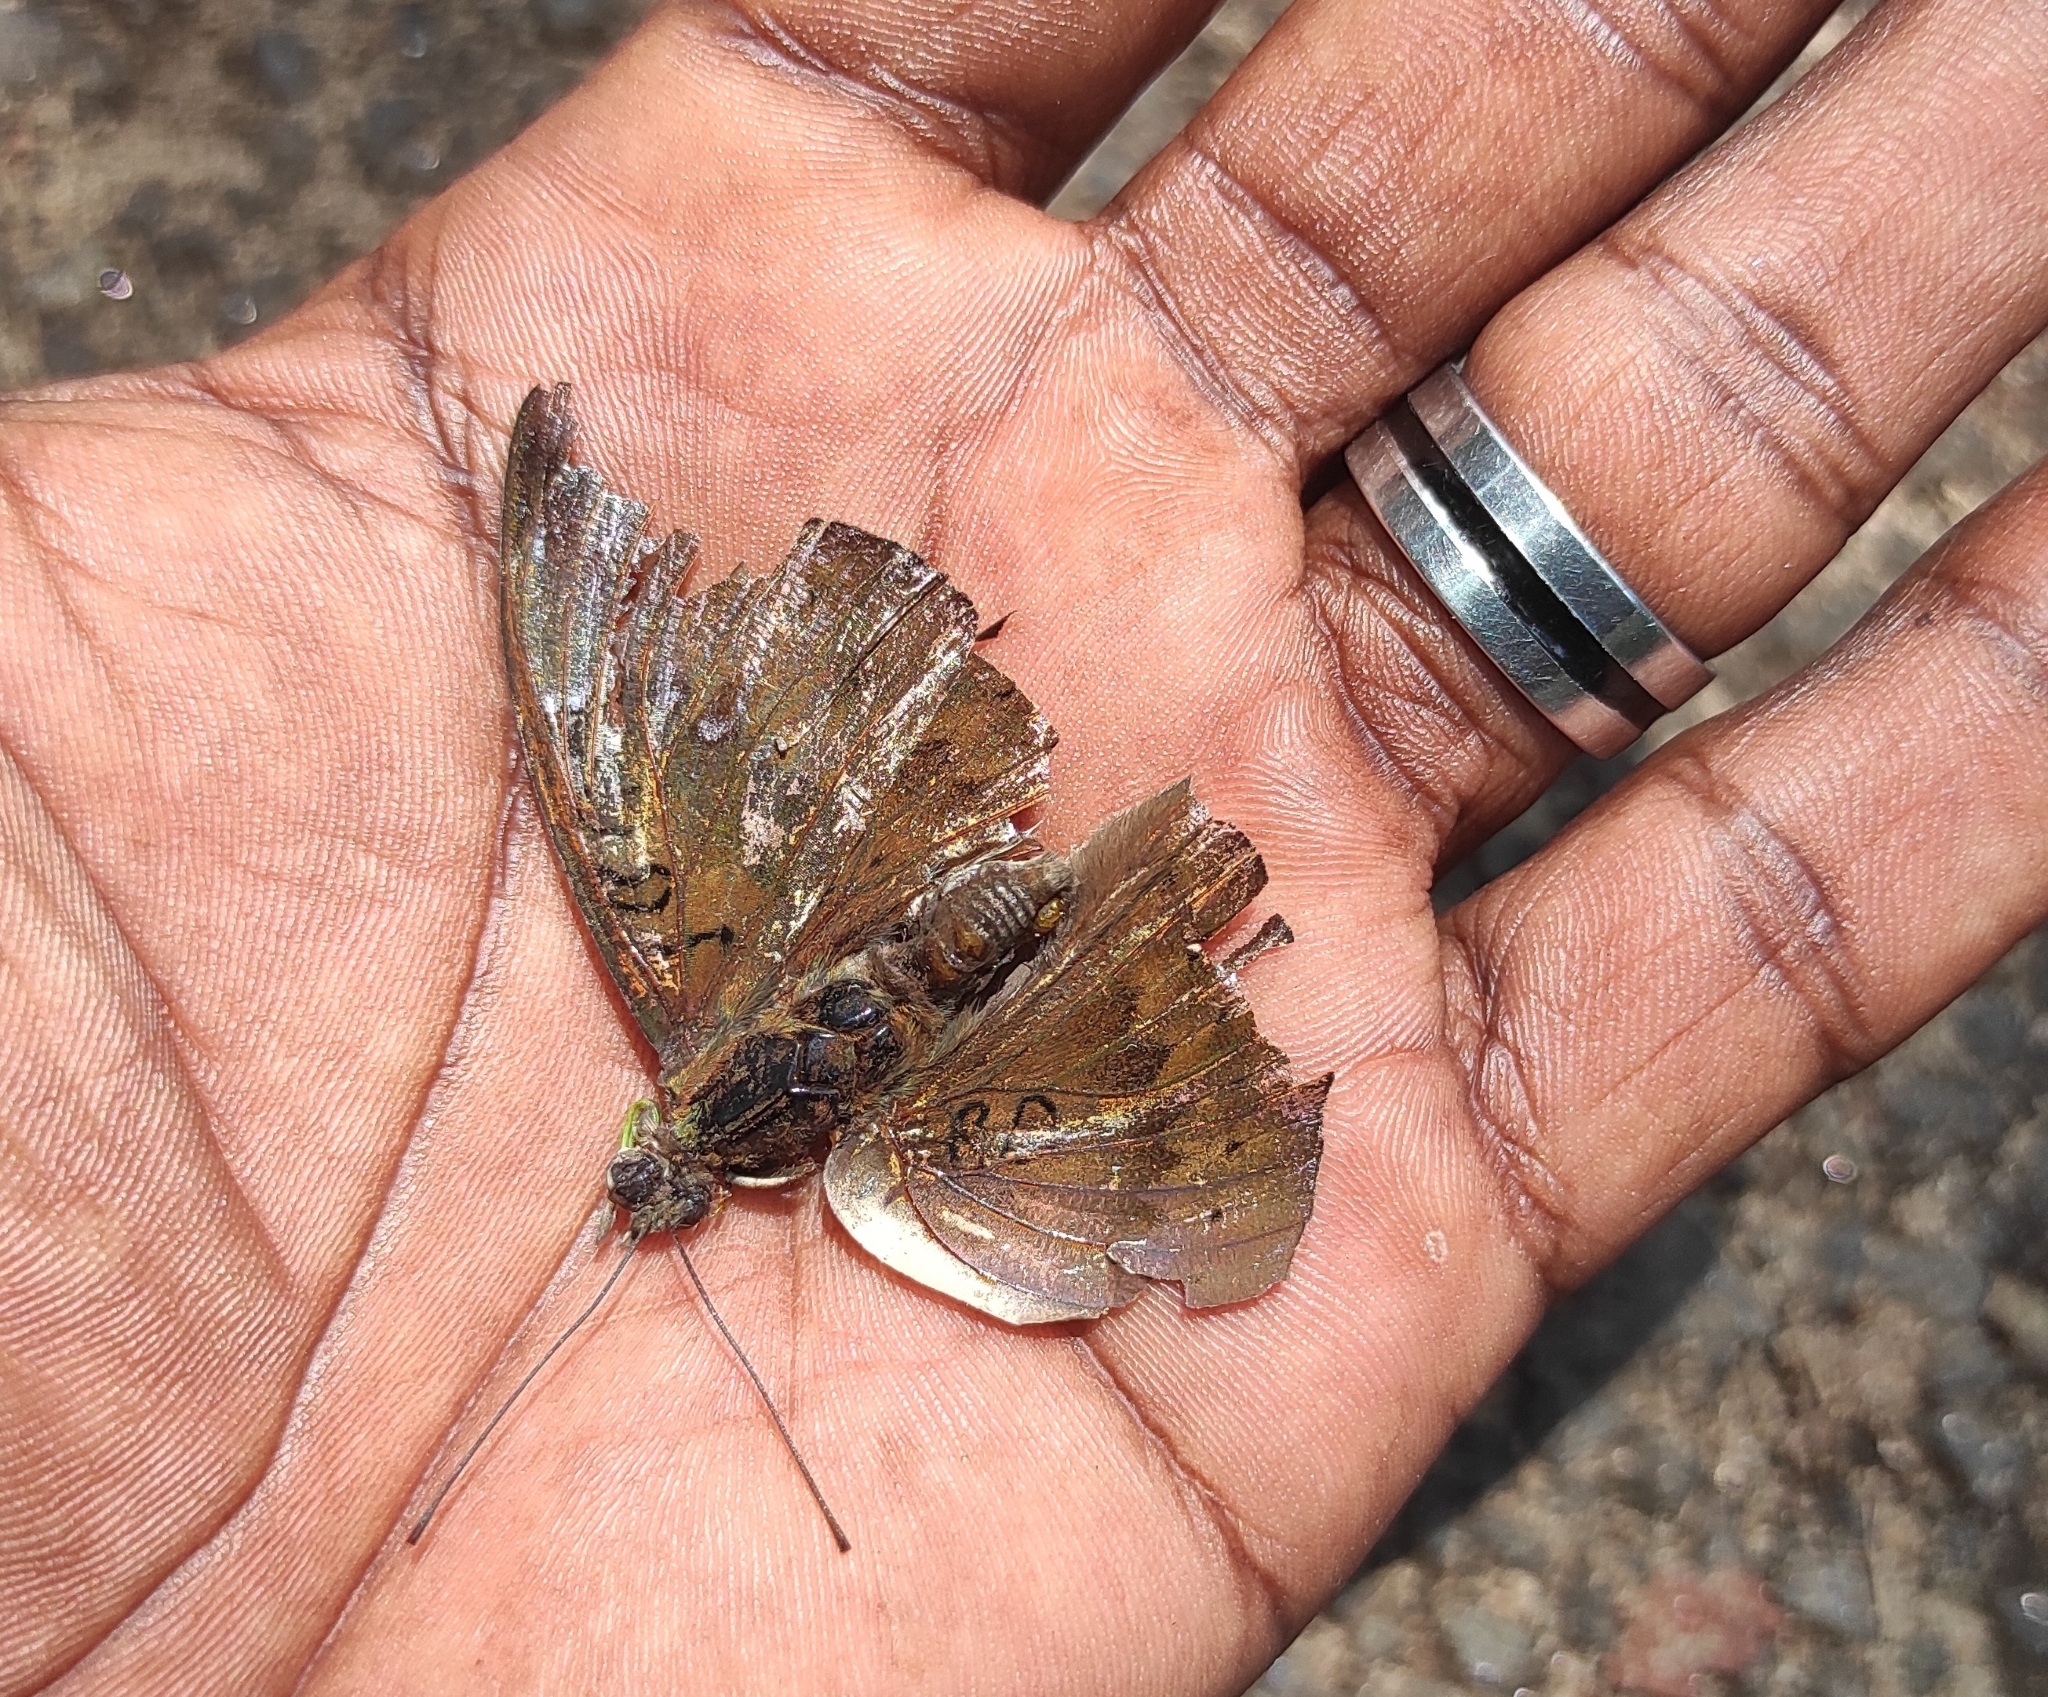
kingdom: Animalia
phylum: Arthropoda
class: Insecta
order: Lepidoptera
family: Nymphalidae
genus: Euthalia
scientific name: Euthalia aconthea
